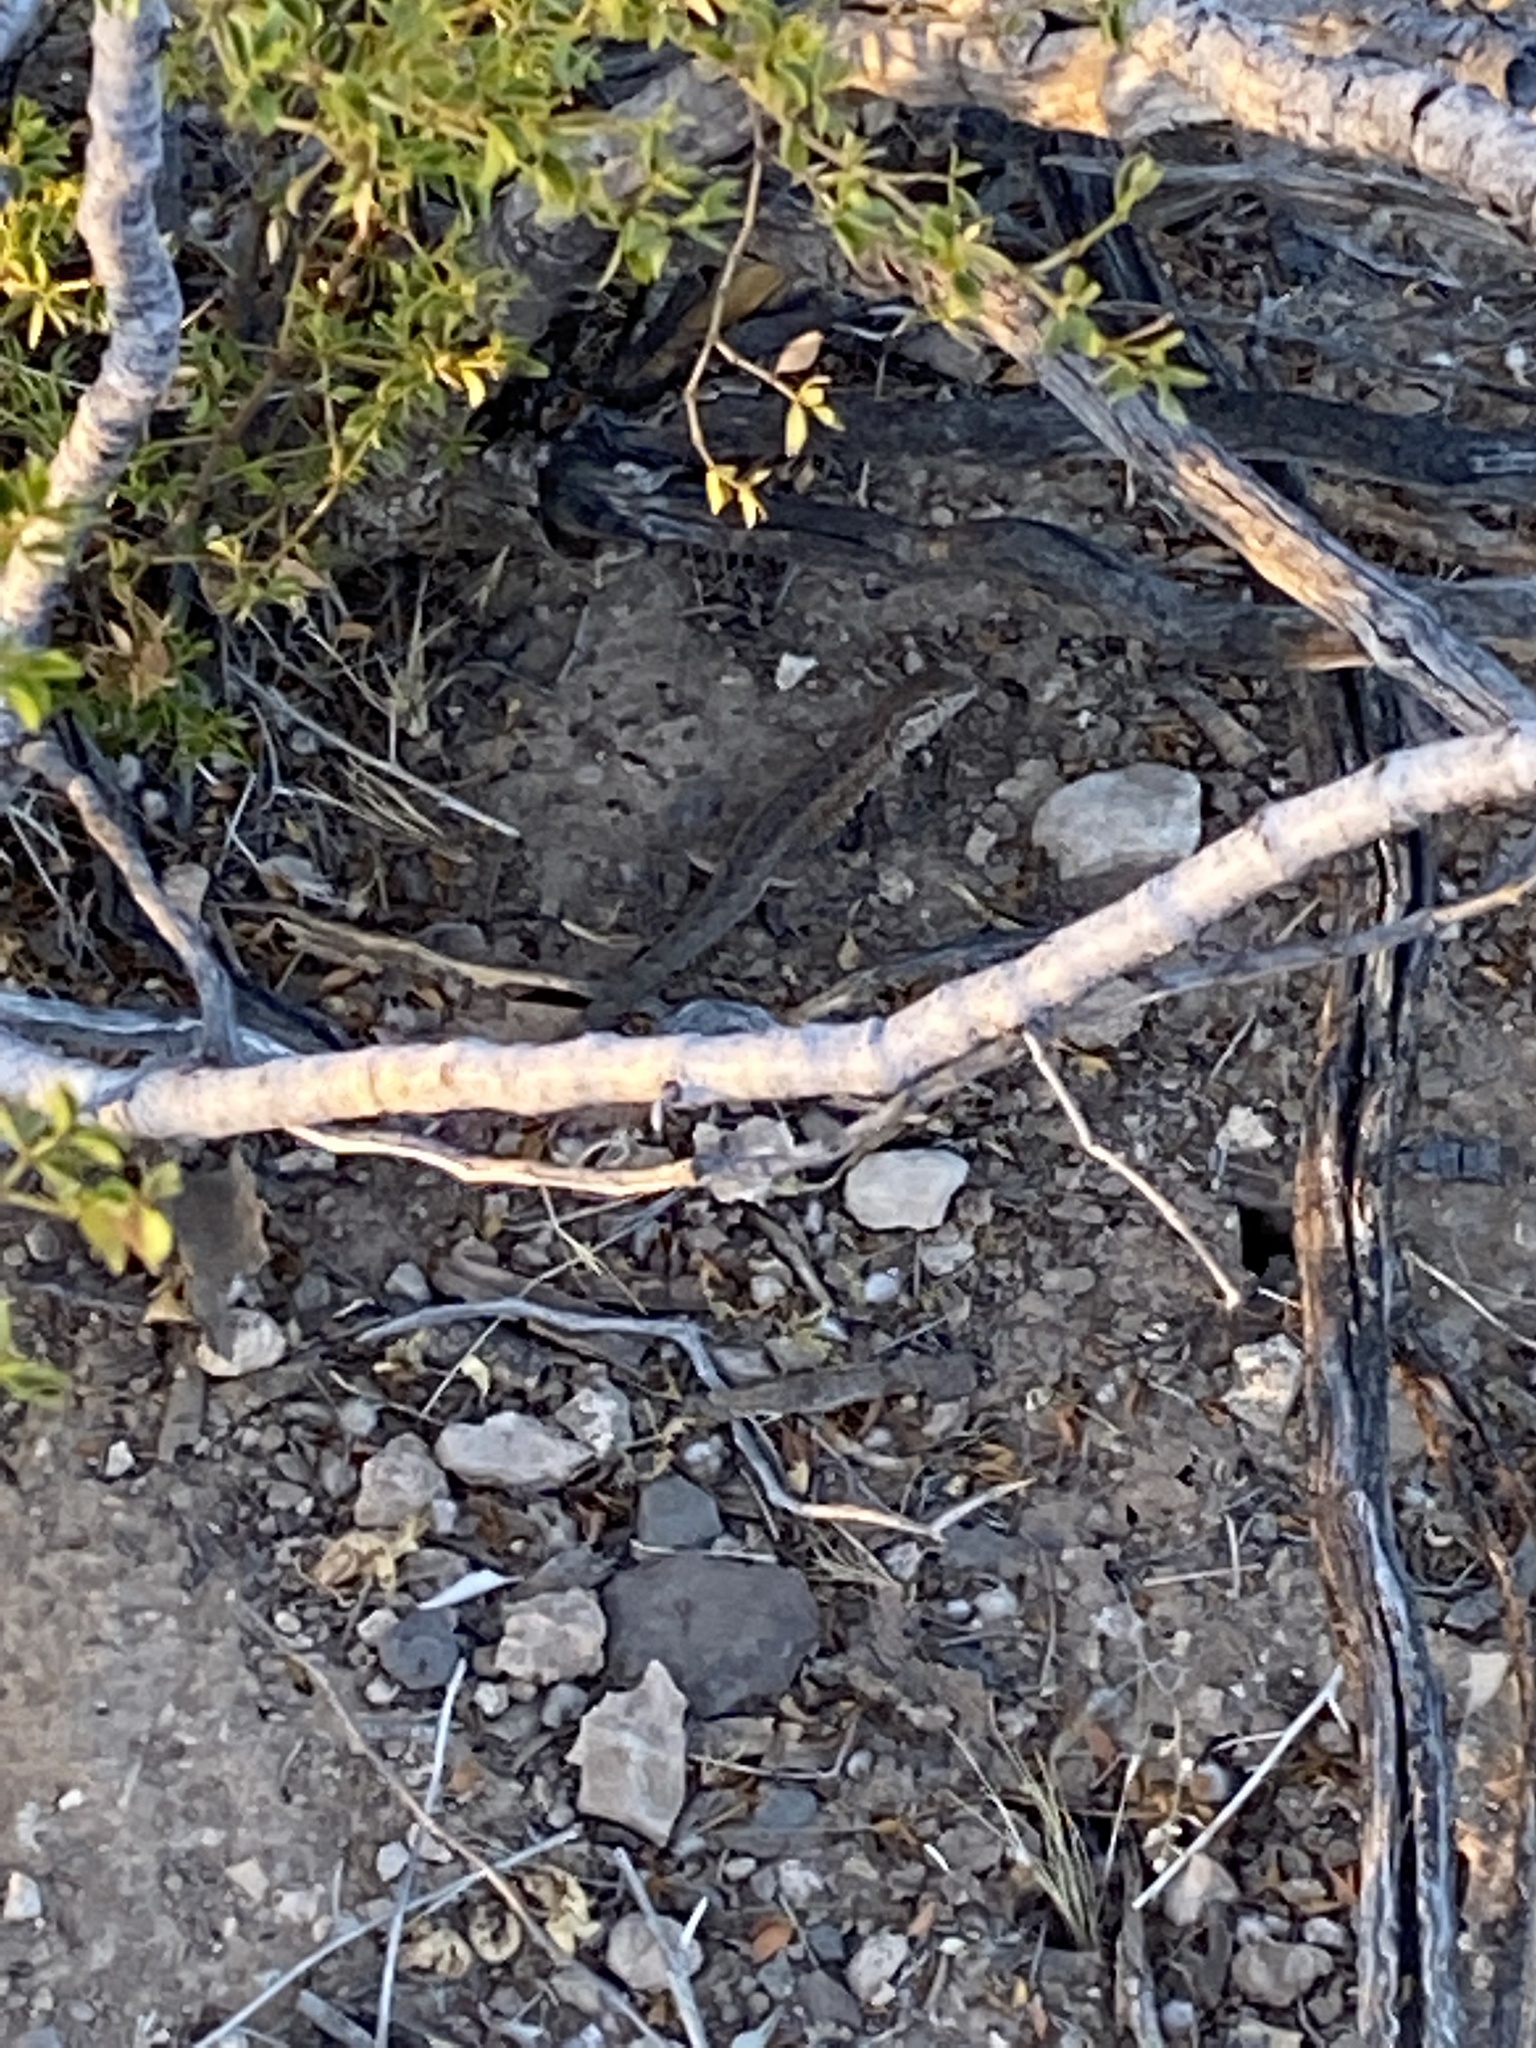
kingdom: Animalia
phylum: Chordata
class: Squamata
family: Phrynosomatidae
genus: Uta
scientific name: Uta stansburiana
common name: Side-blotched lizard
